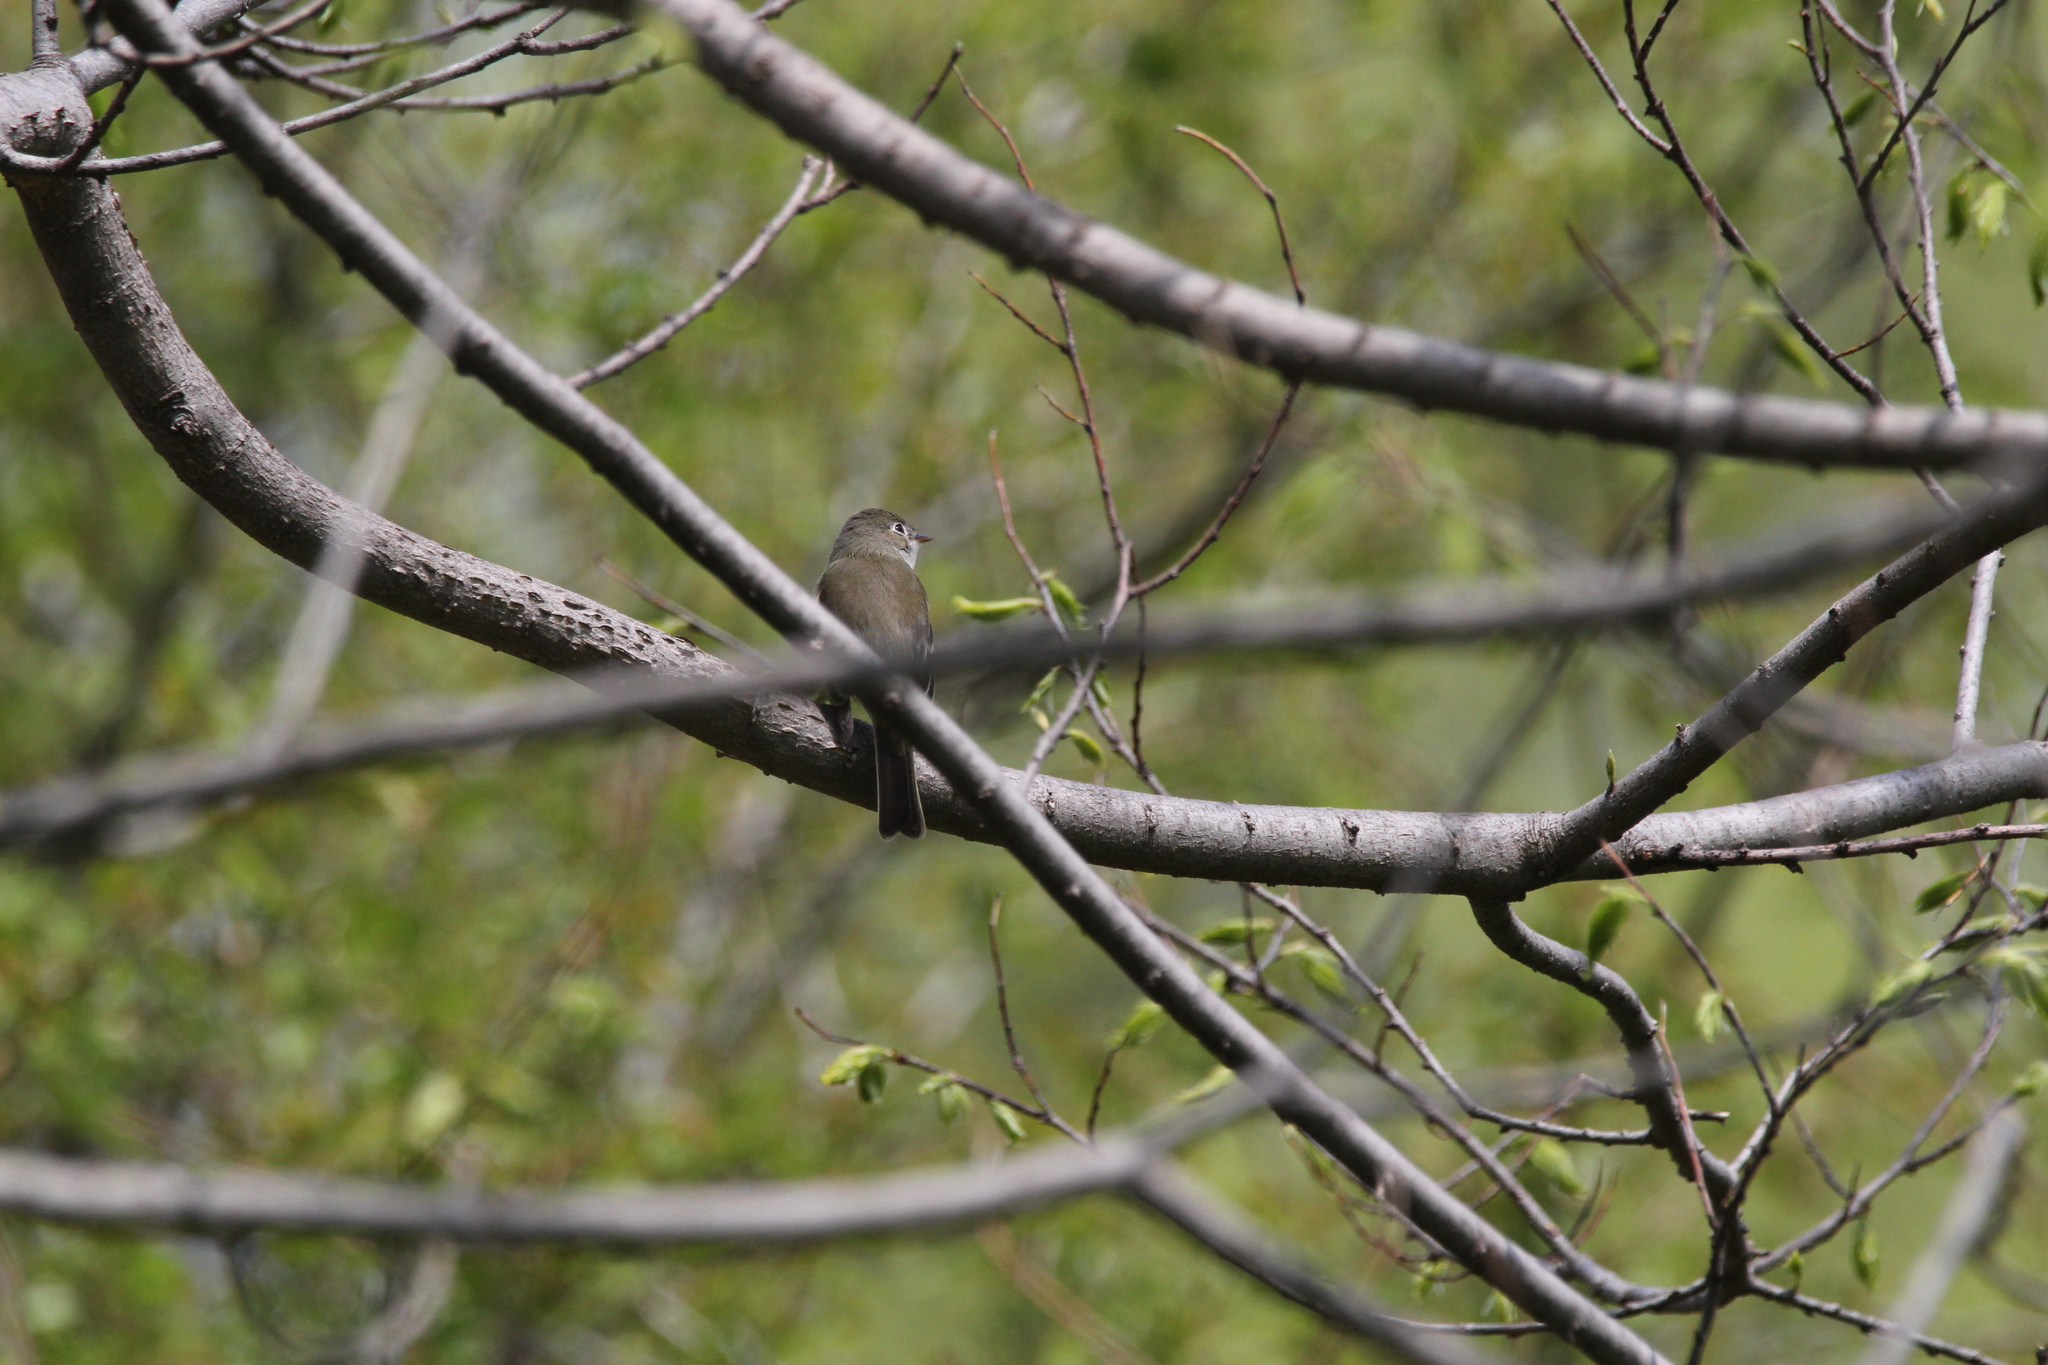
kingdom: Animalia
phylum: Chordata
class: Aves
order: Passeriformes
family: Tyrannidae
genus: Empidonax
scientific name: Empidonax
